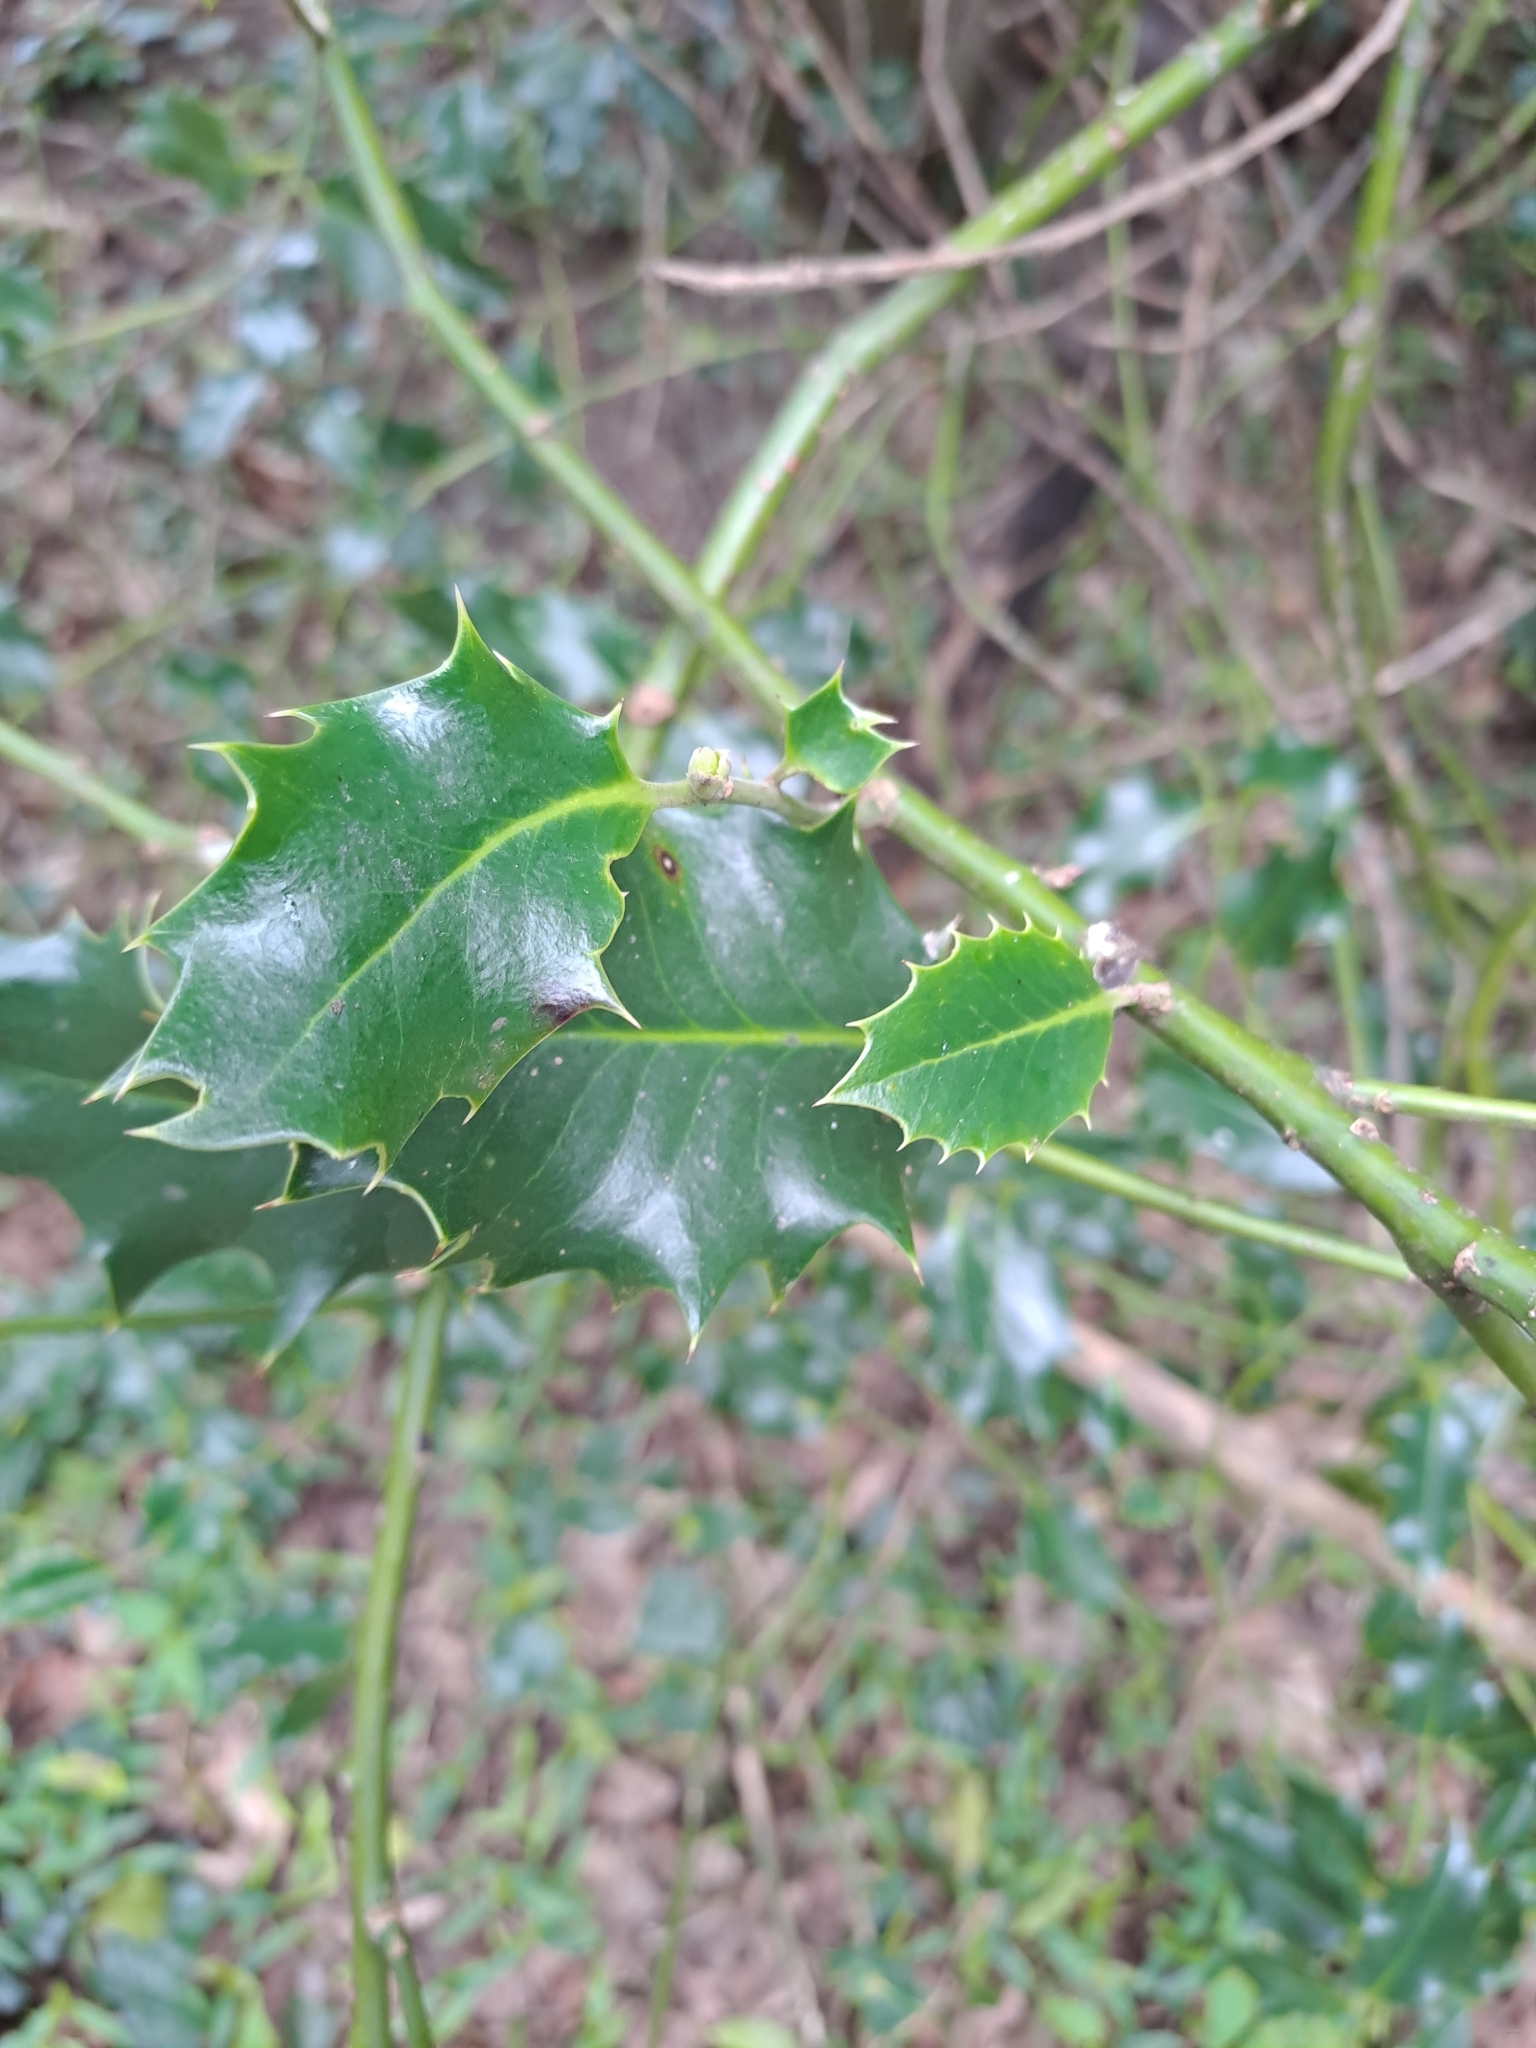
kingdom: Plantae
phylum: Tracheophyta
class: Magnoliopsida
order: Aquifoliales
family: Aquifoliaceae
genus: Ilex
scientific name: Ilex aquifolium
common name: English holly
